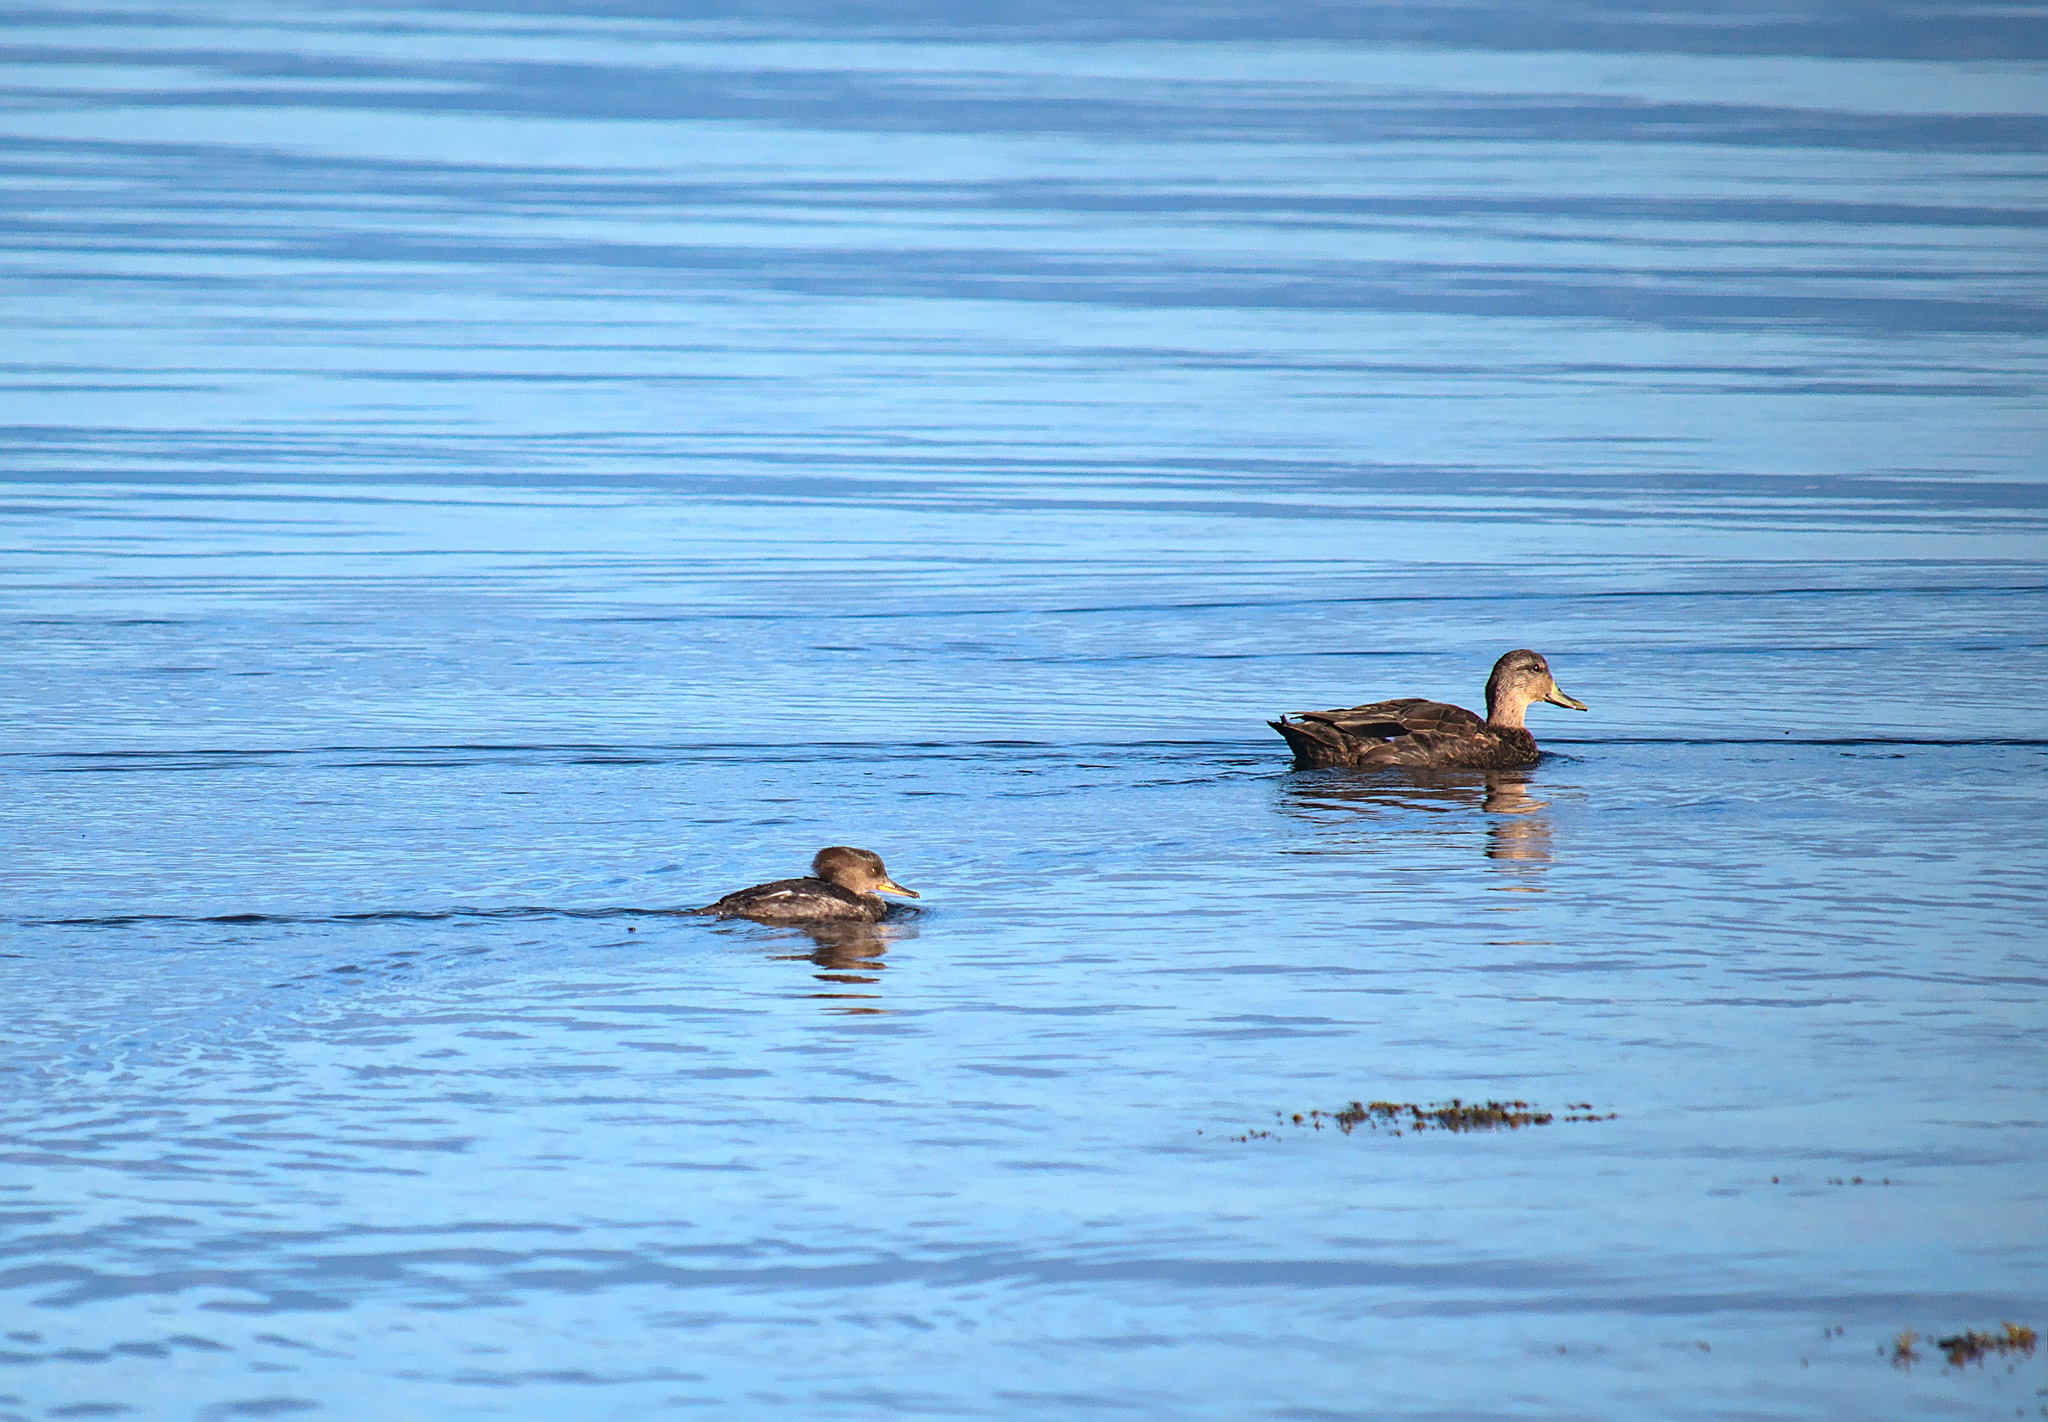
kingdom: Animalia
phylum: Chordata
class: Aves
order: Anseriformes
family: Anatidae
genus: Lophodytes
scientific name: Lophodytes cucullatus
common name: Hooded merganser
